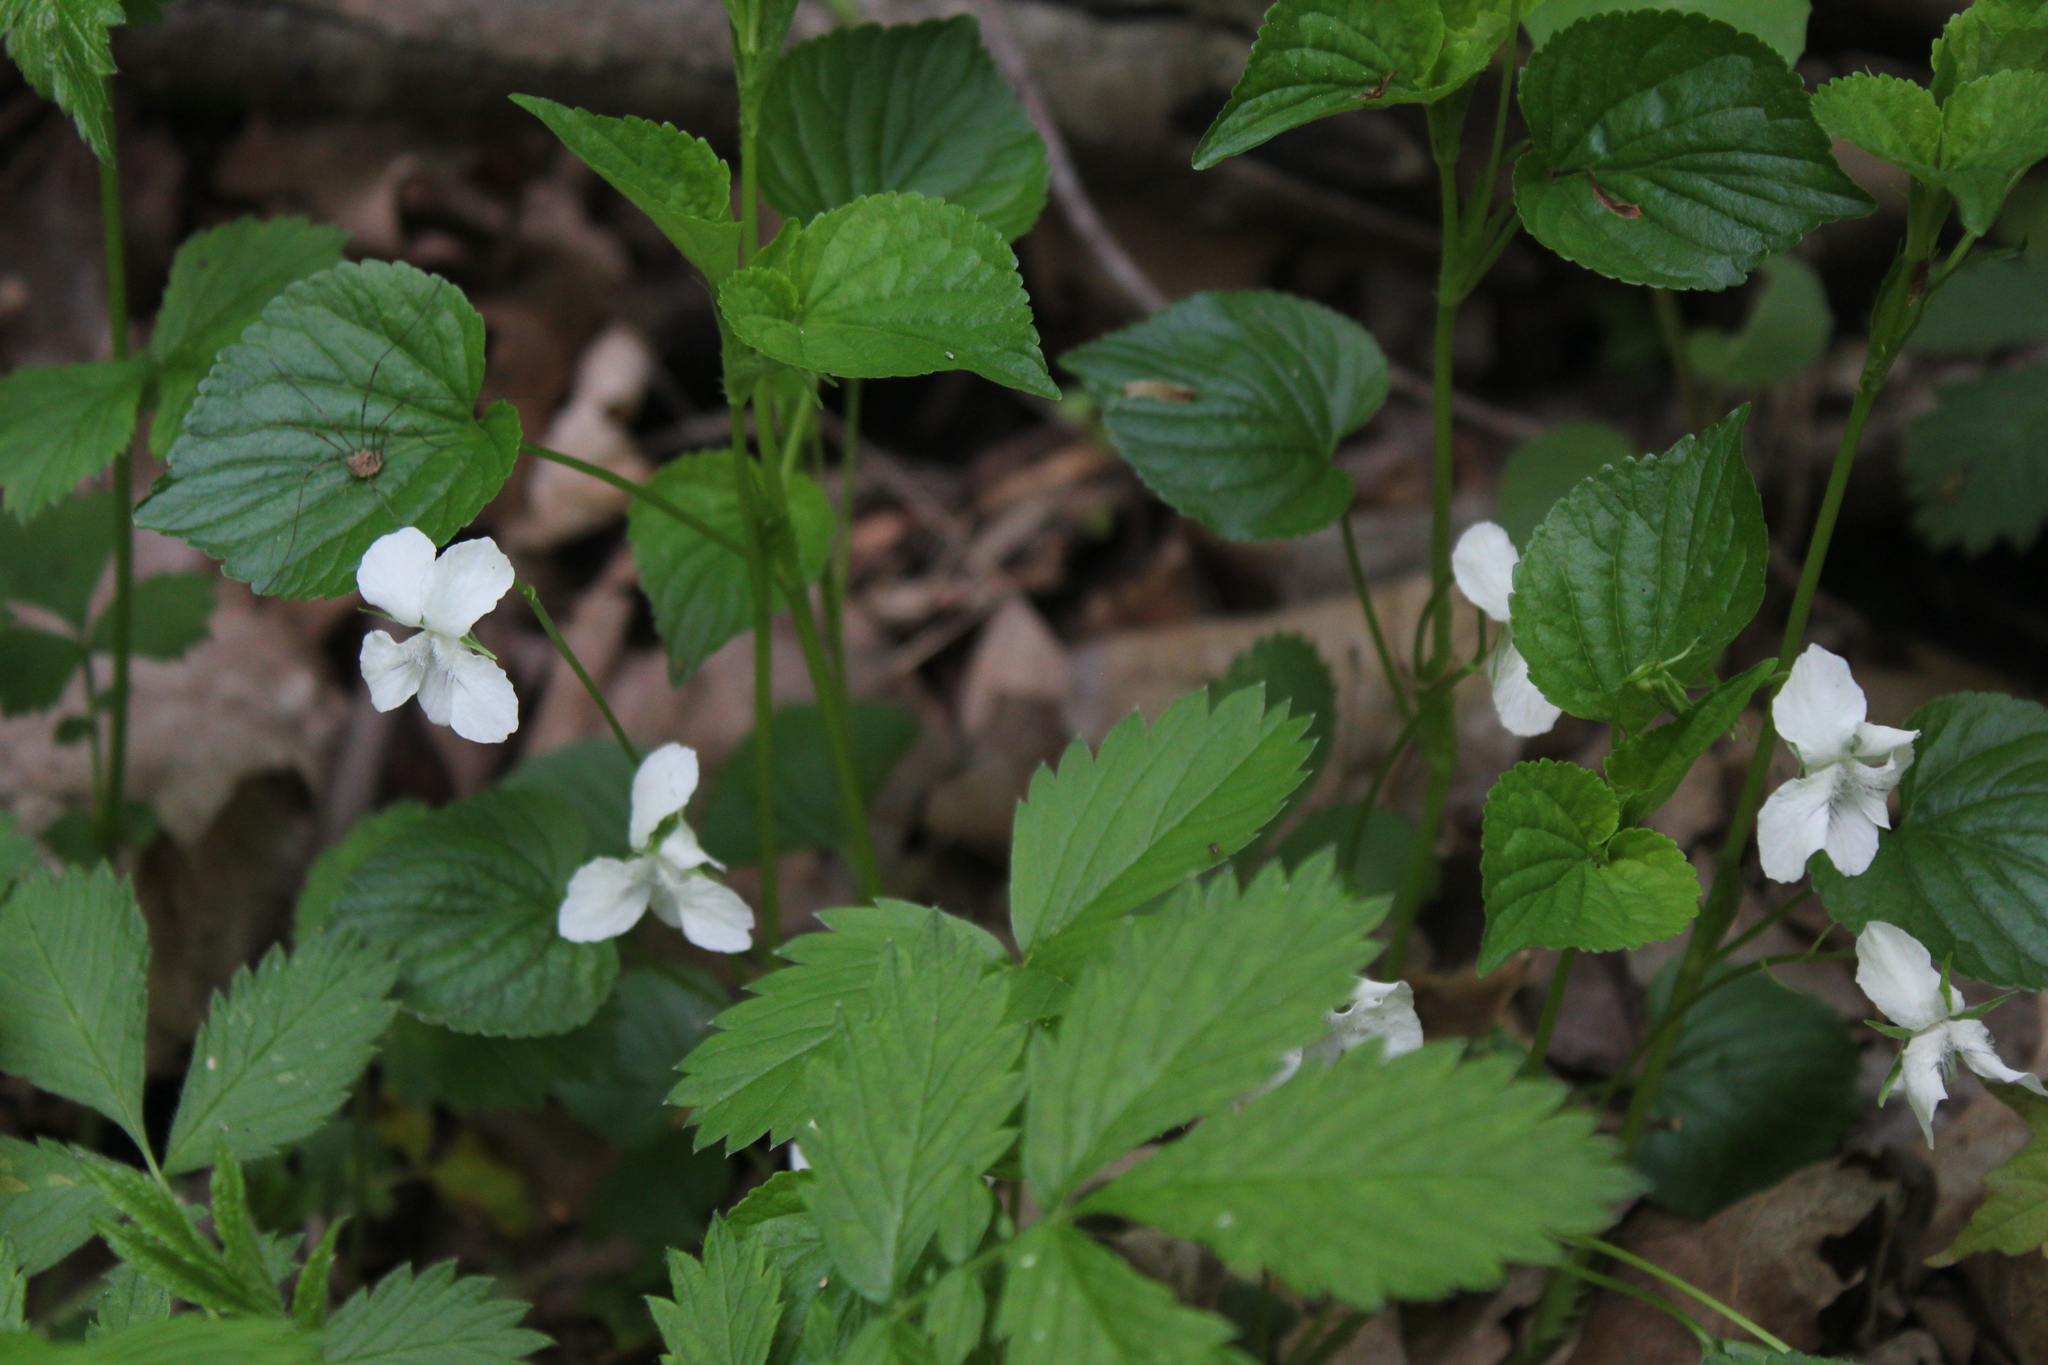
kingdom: Plantae
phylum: Tracheophyta
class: Magnoliopsida
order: Malpighiales
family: Violaceae
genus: Viola
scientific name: Viola striata
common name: Cream violet
